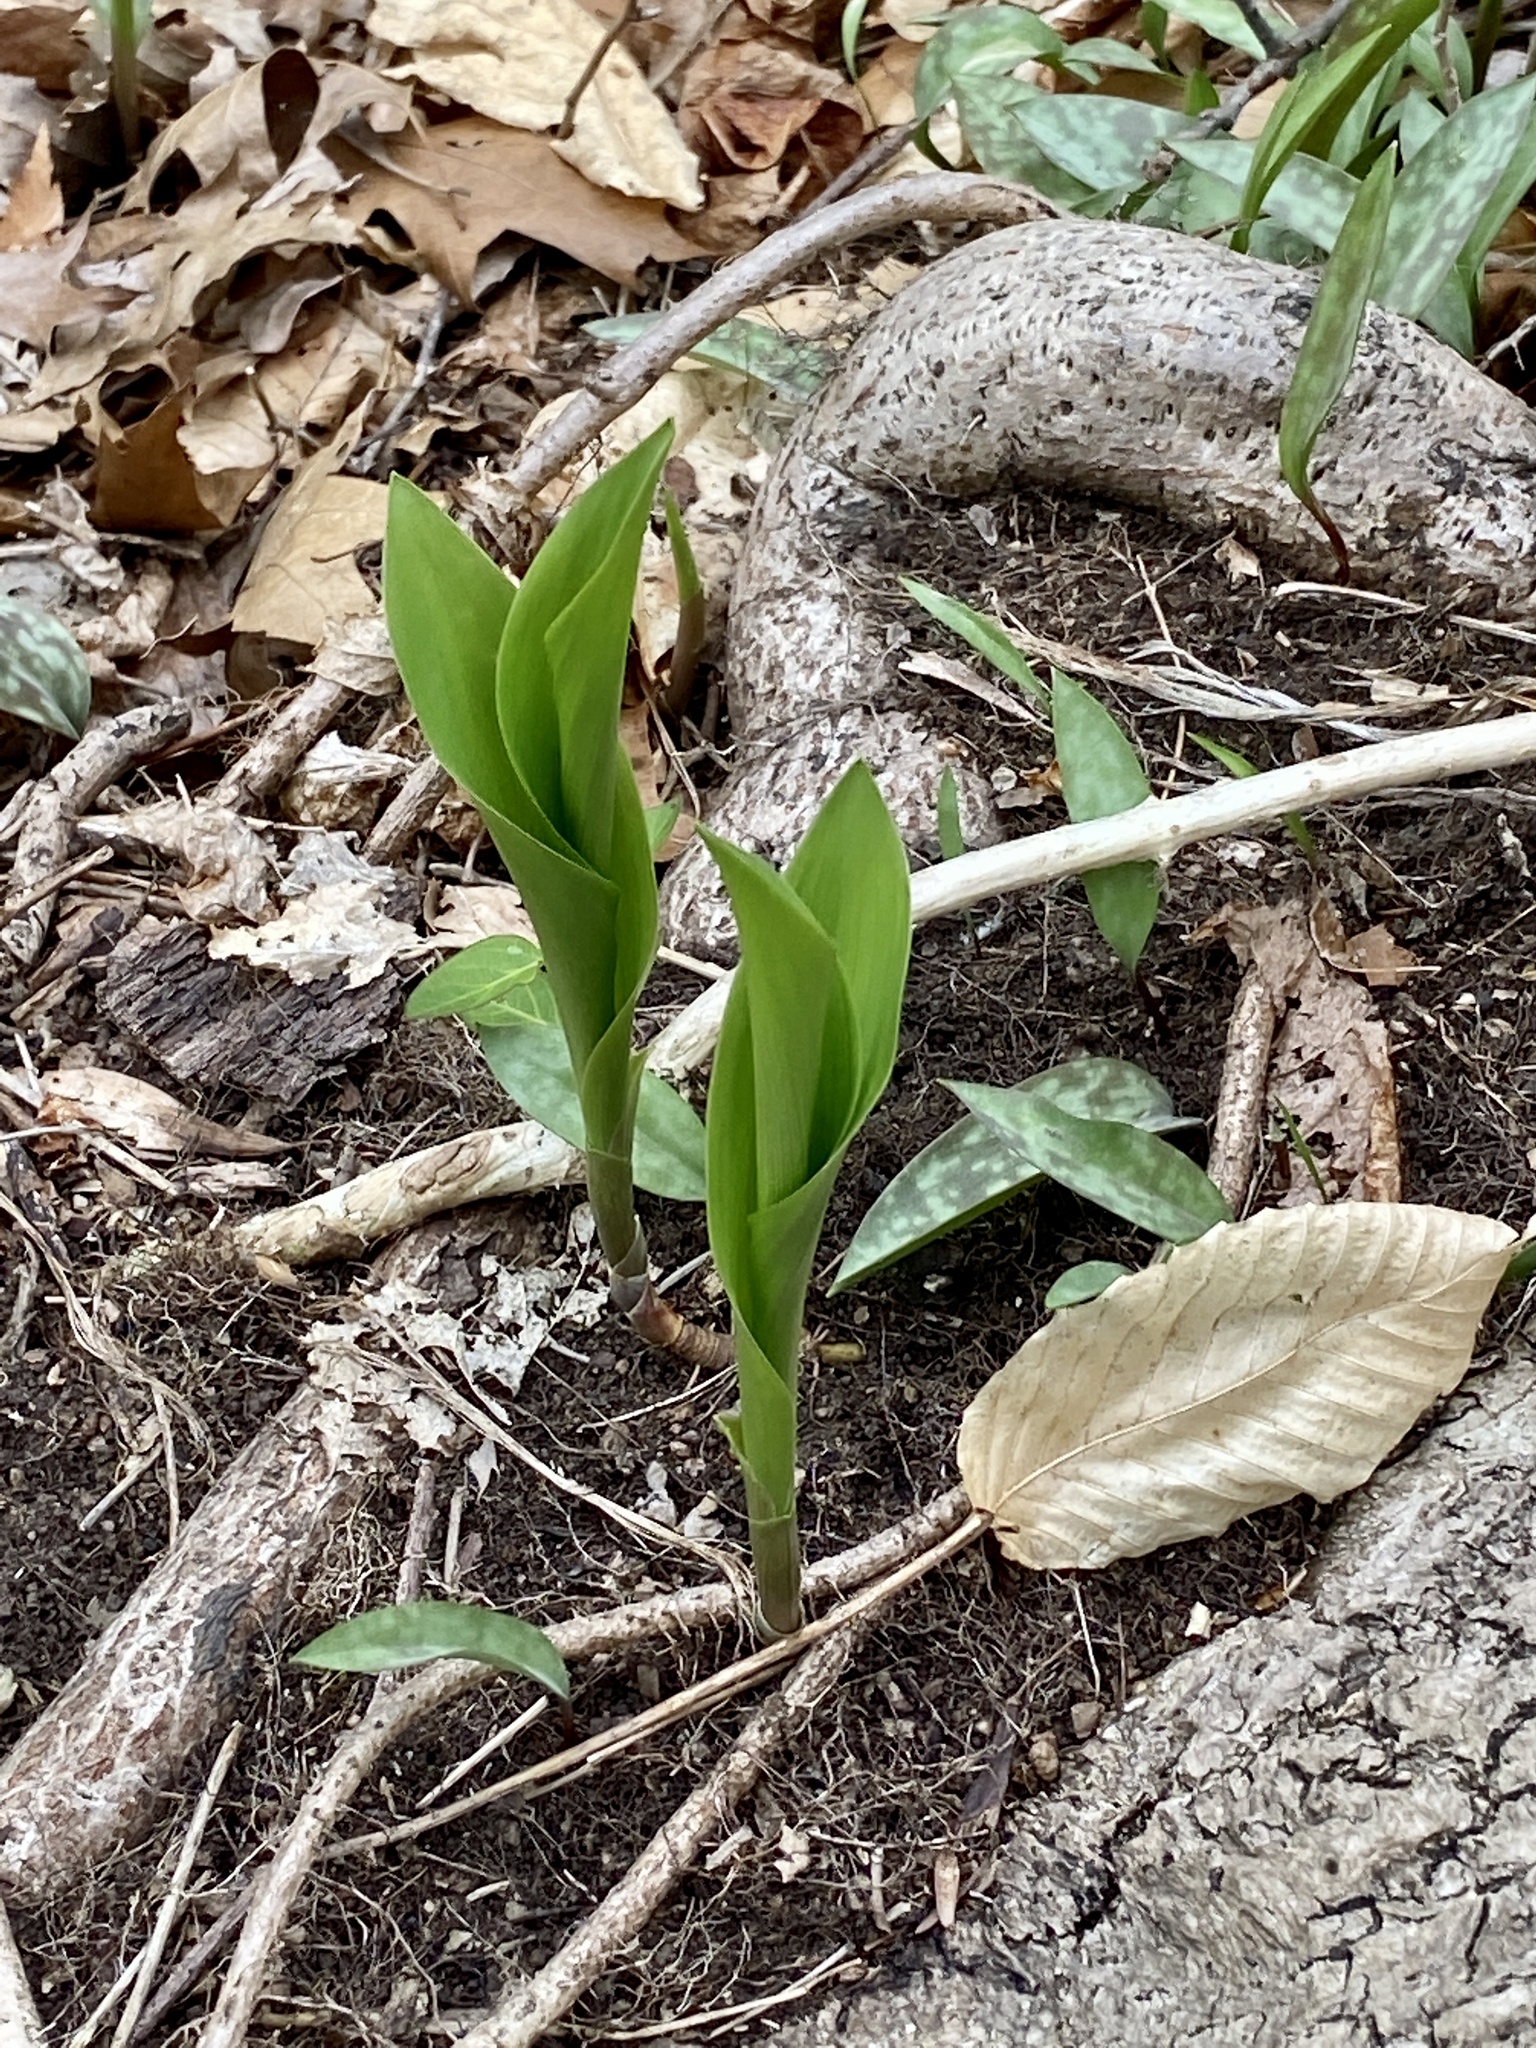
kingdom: Plantae
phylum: Tracheophyta
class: Liliopsida
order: Asparagales
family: Asparagaceae
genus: Convallaria
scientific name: Convallaria majalis
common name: Lily-of-the-valley
